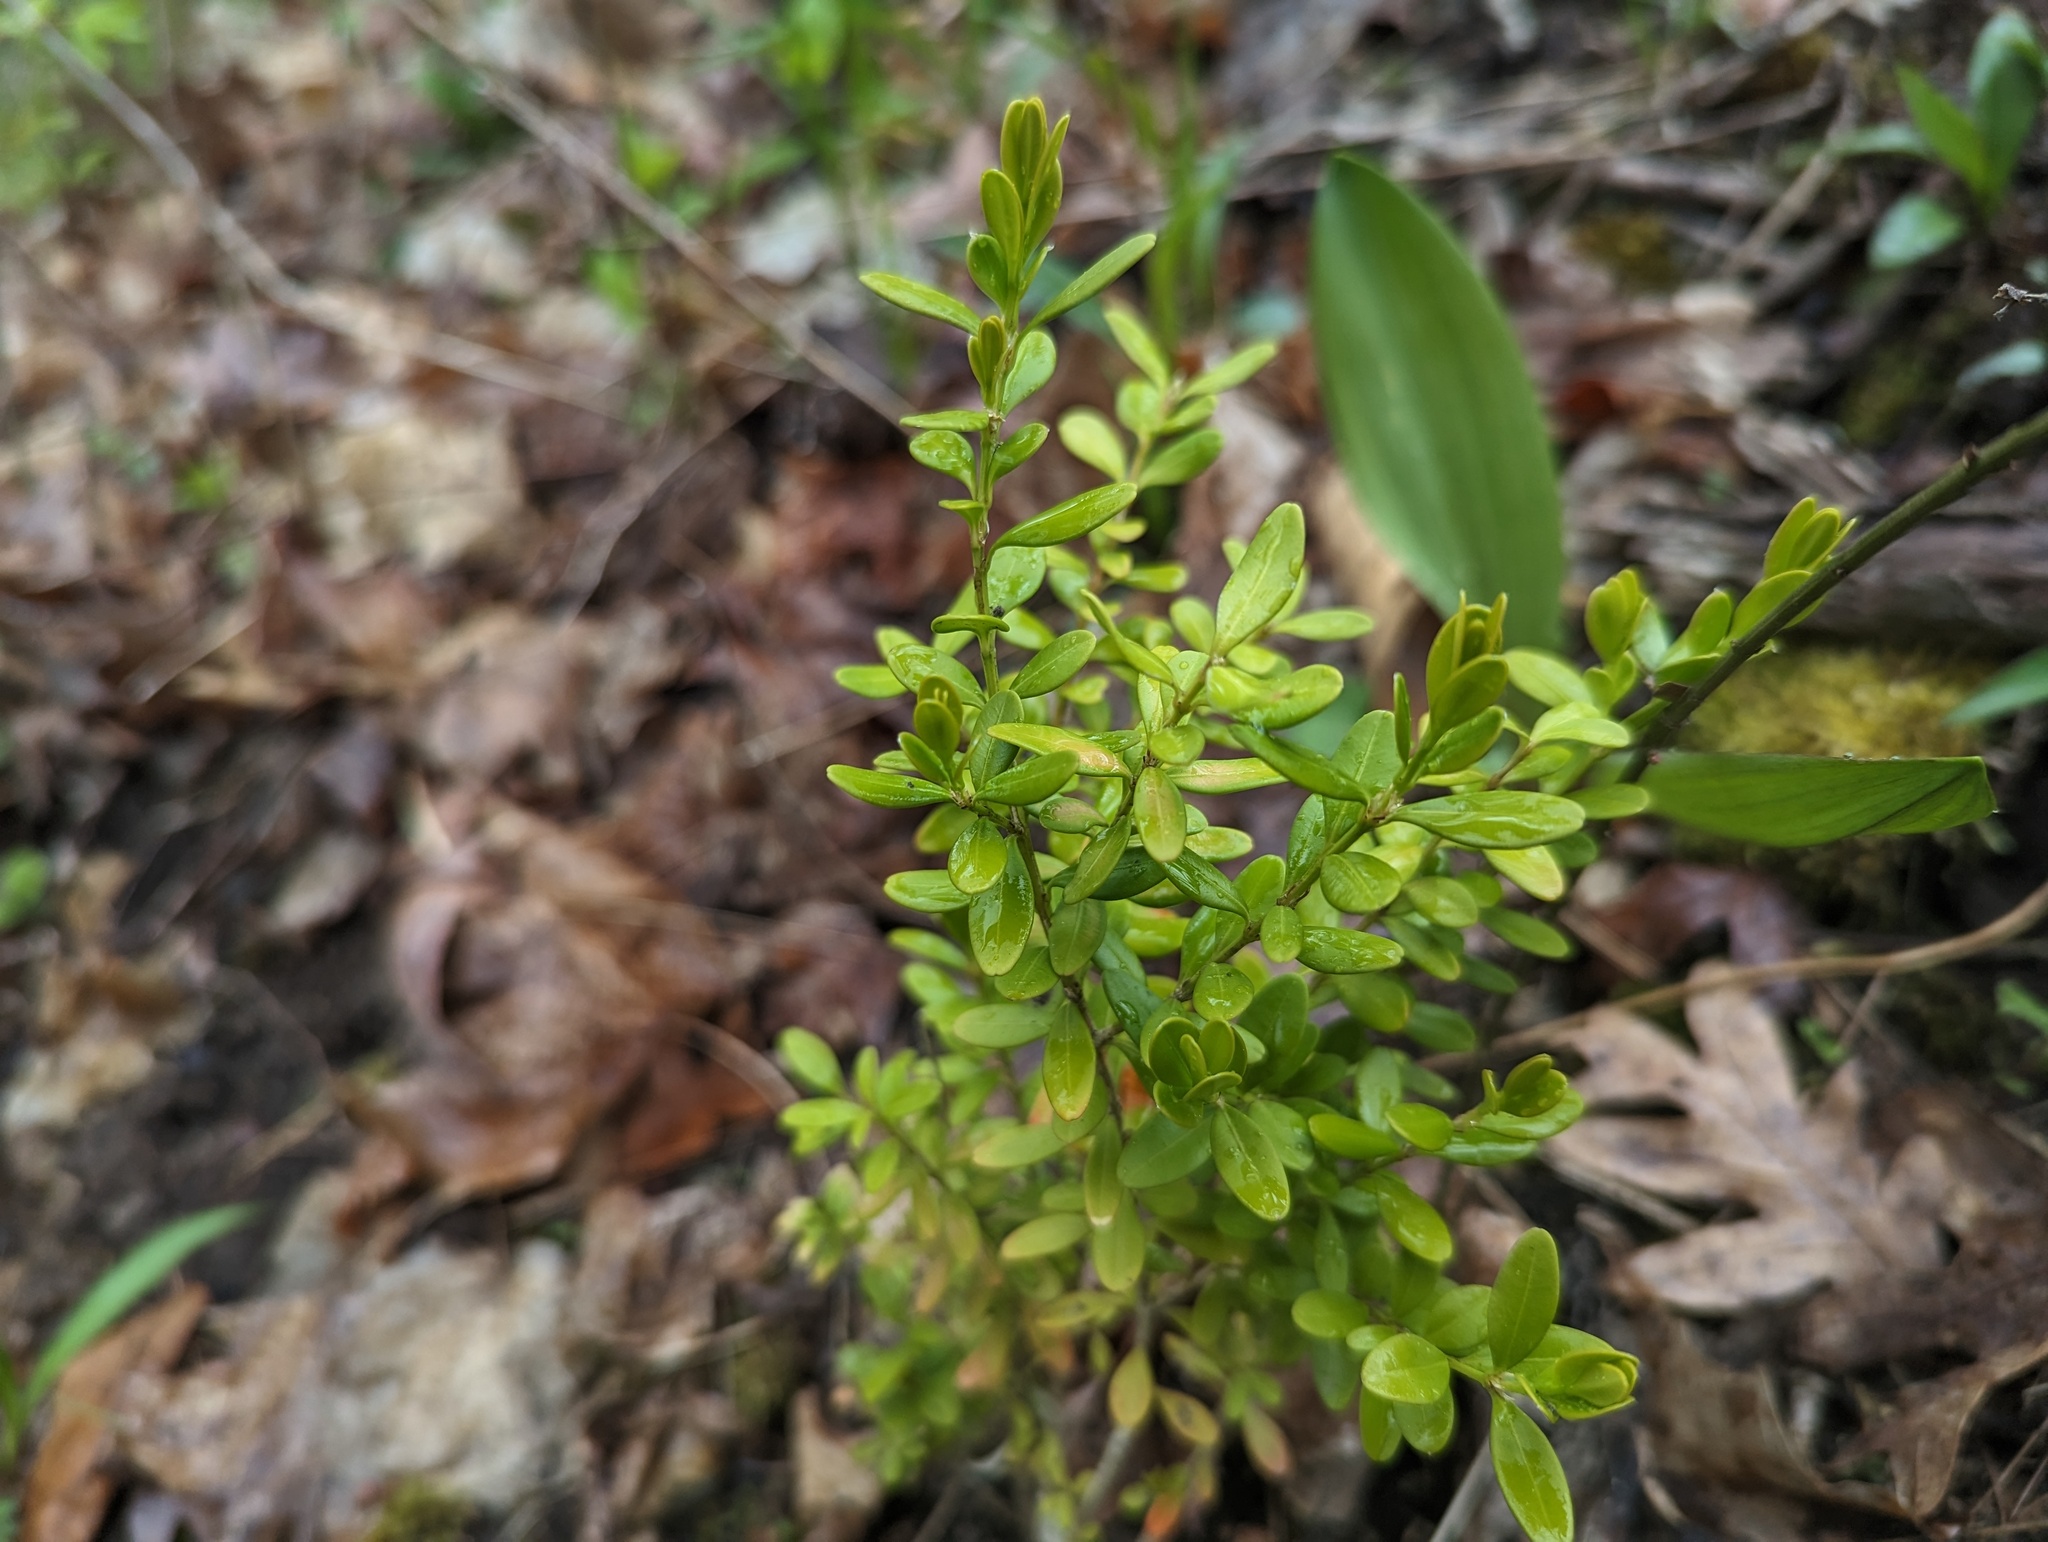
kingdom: Plantae
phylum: Tracheophyta
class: Magnoliopsida
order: Buxales
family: Buxaceae
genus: Buxus
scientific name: Buxus sempervirens
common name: Box
